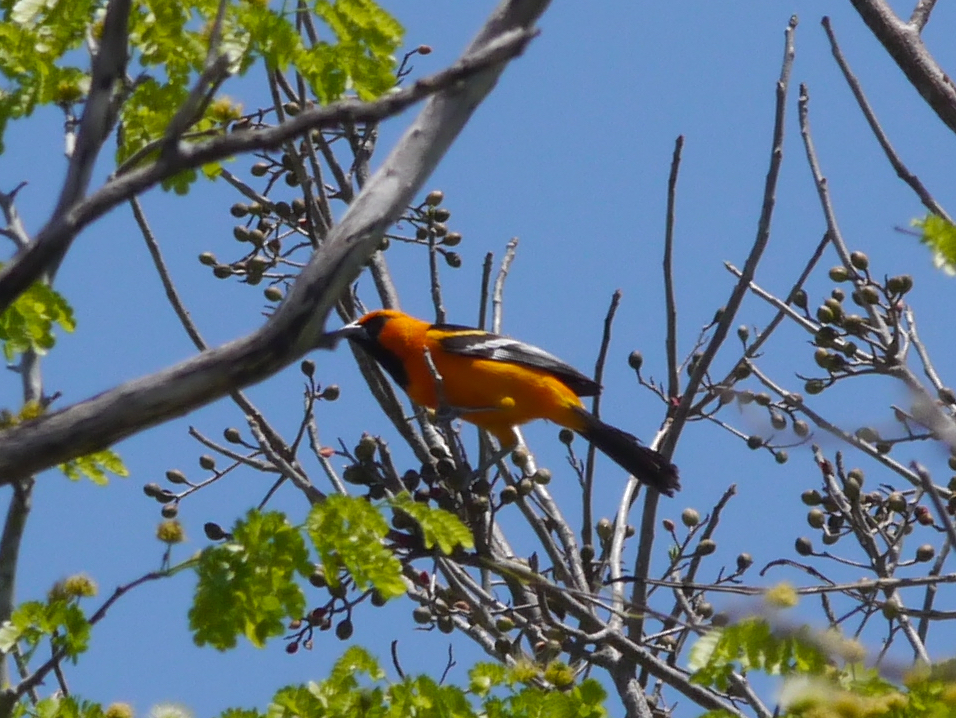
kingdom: Animalia
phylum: Chordata
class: Aves
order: Passeriformes
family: Icteridae
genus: Icterus
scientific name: Icterus gularis
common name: Altamira oriole
